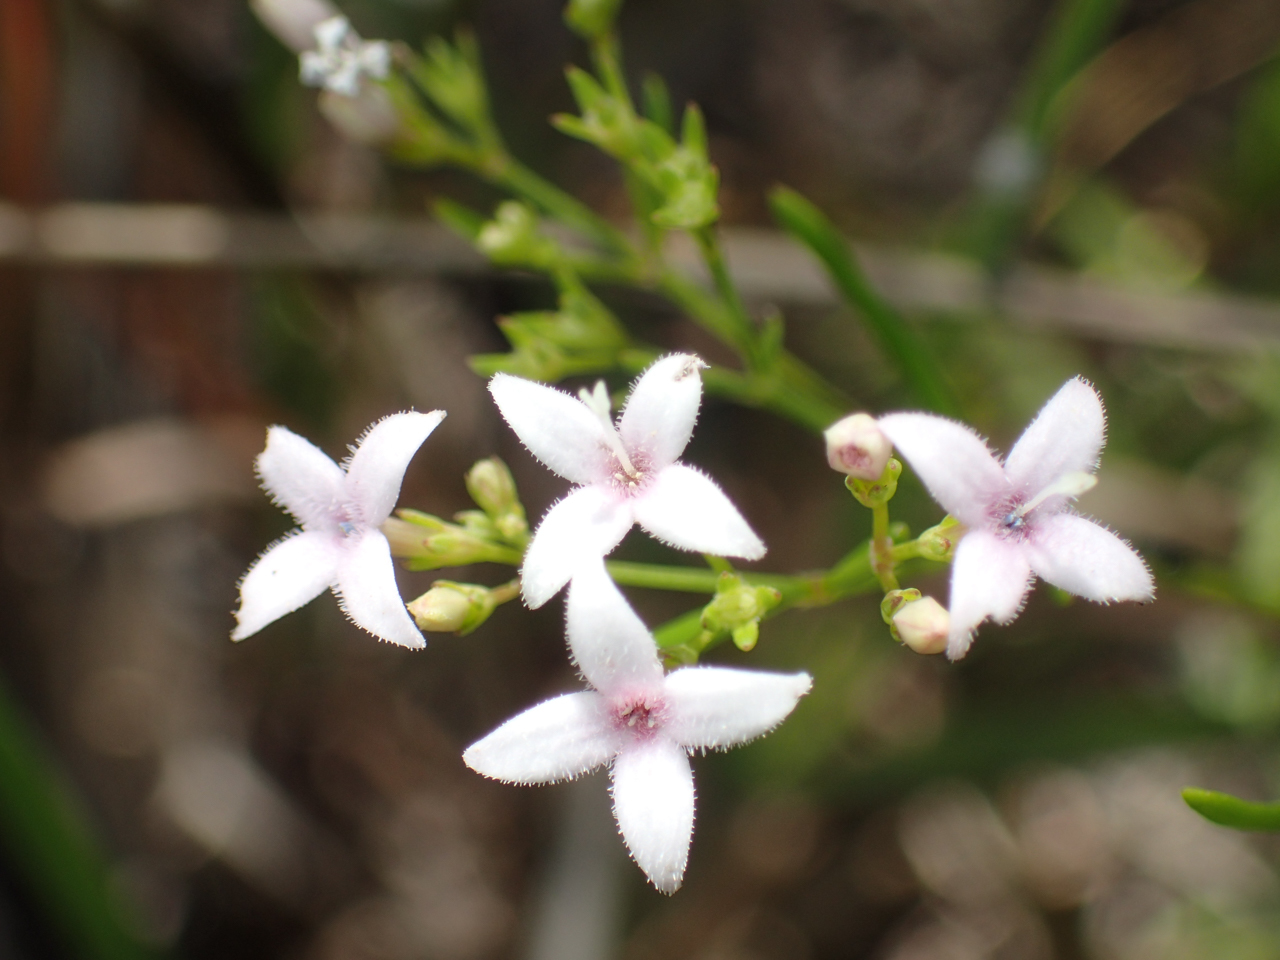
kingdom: Plantae
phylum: Tracheophyta
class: Magnoliopsida
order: Gentianales
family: Rubiaceae
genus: Stenaria
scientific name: Stenaria nigricans
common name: Diamondflowers
